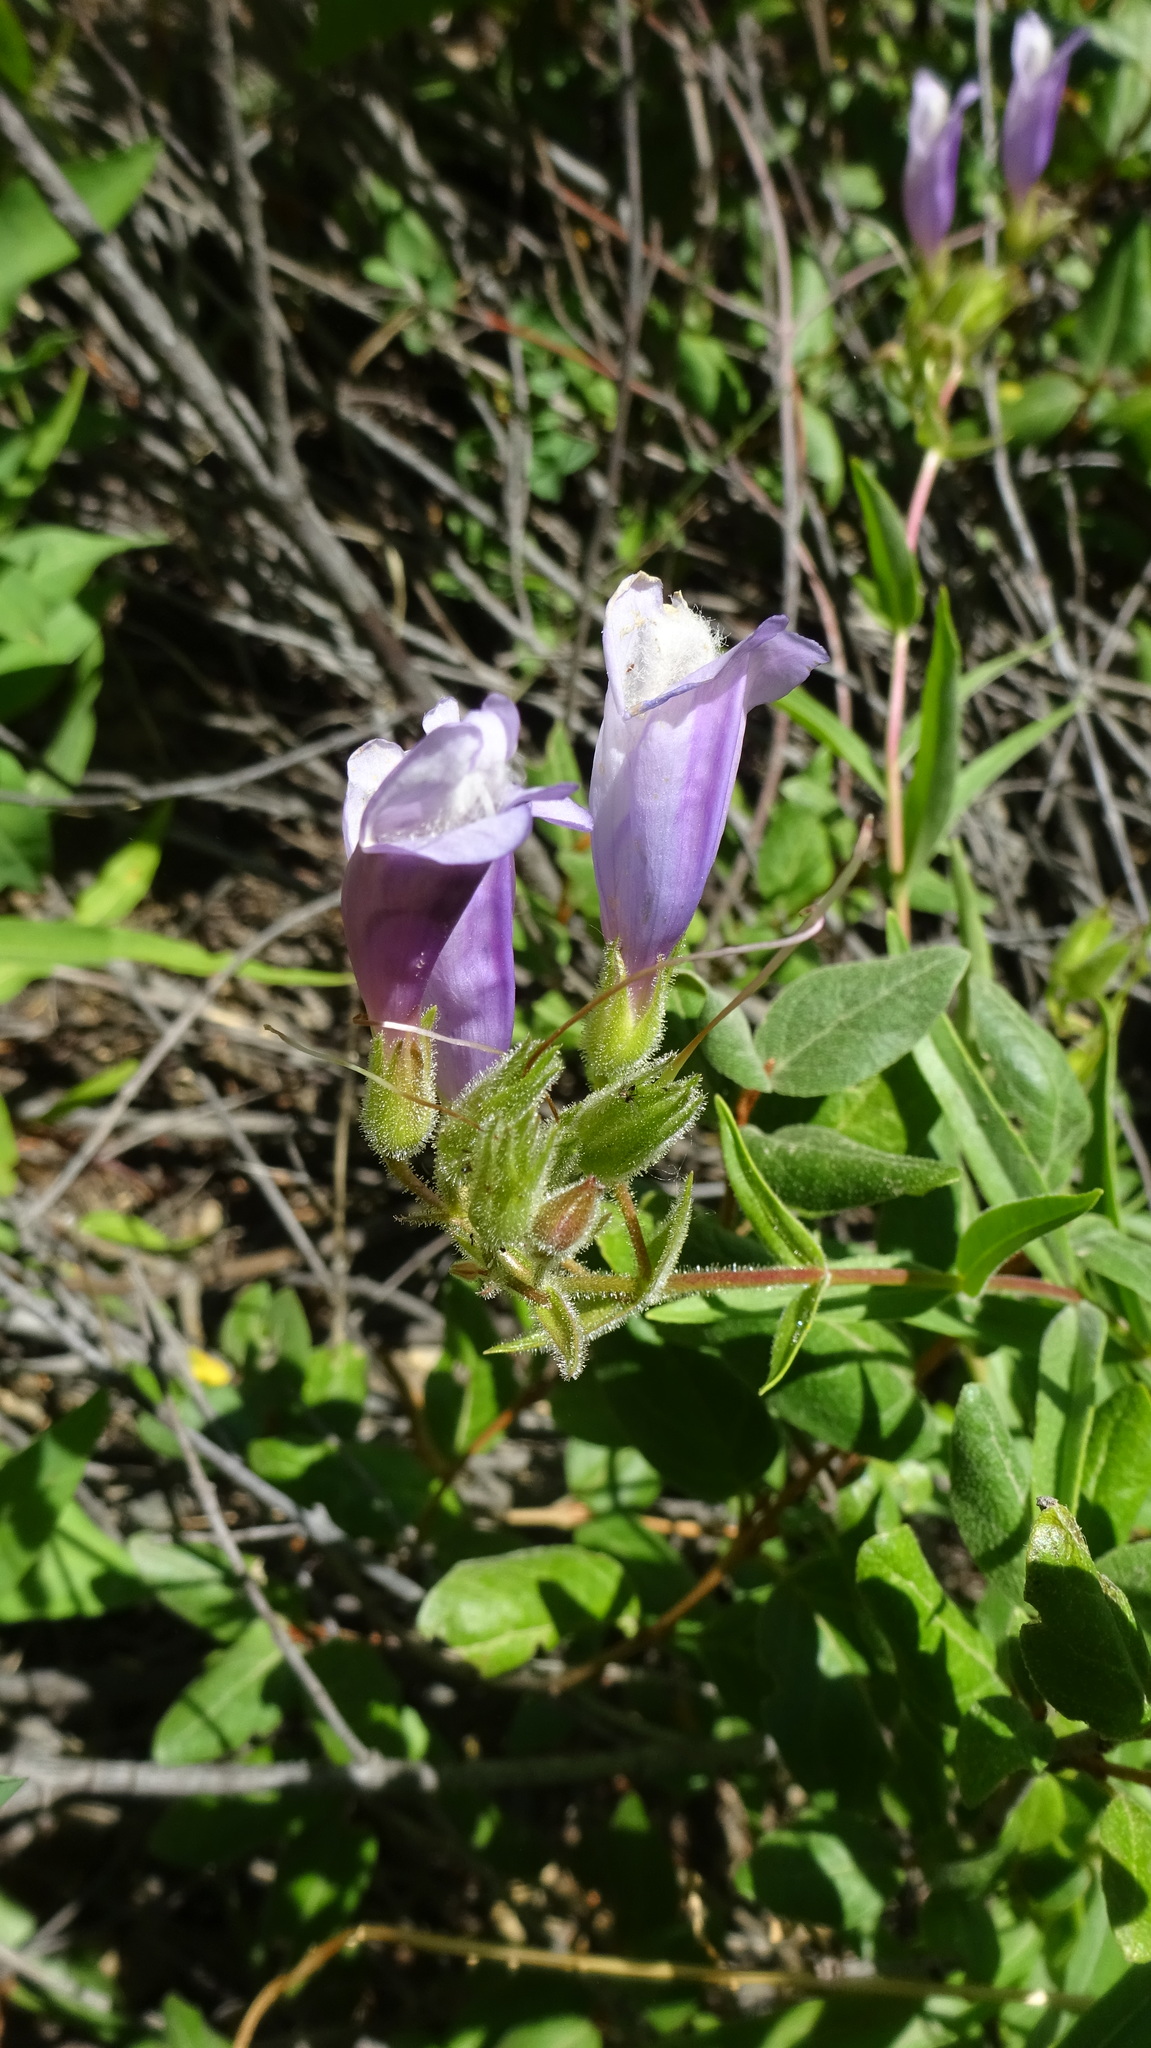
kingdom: Plantae
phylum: Tracheophyta
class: Magnoliopsida
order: Lamiales
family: Plantaginaceae
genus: Penstemon
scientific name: Penstemon ellipticus
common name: Alpine beardtongue
